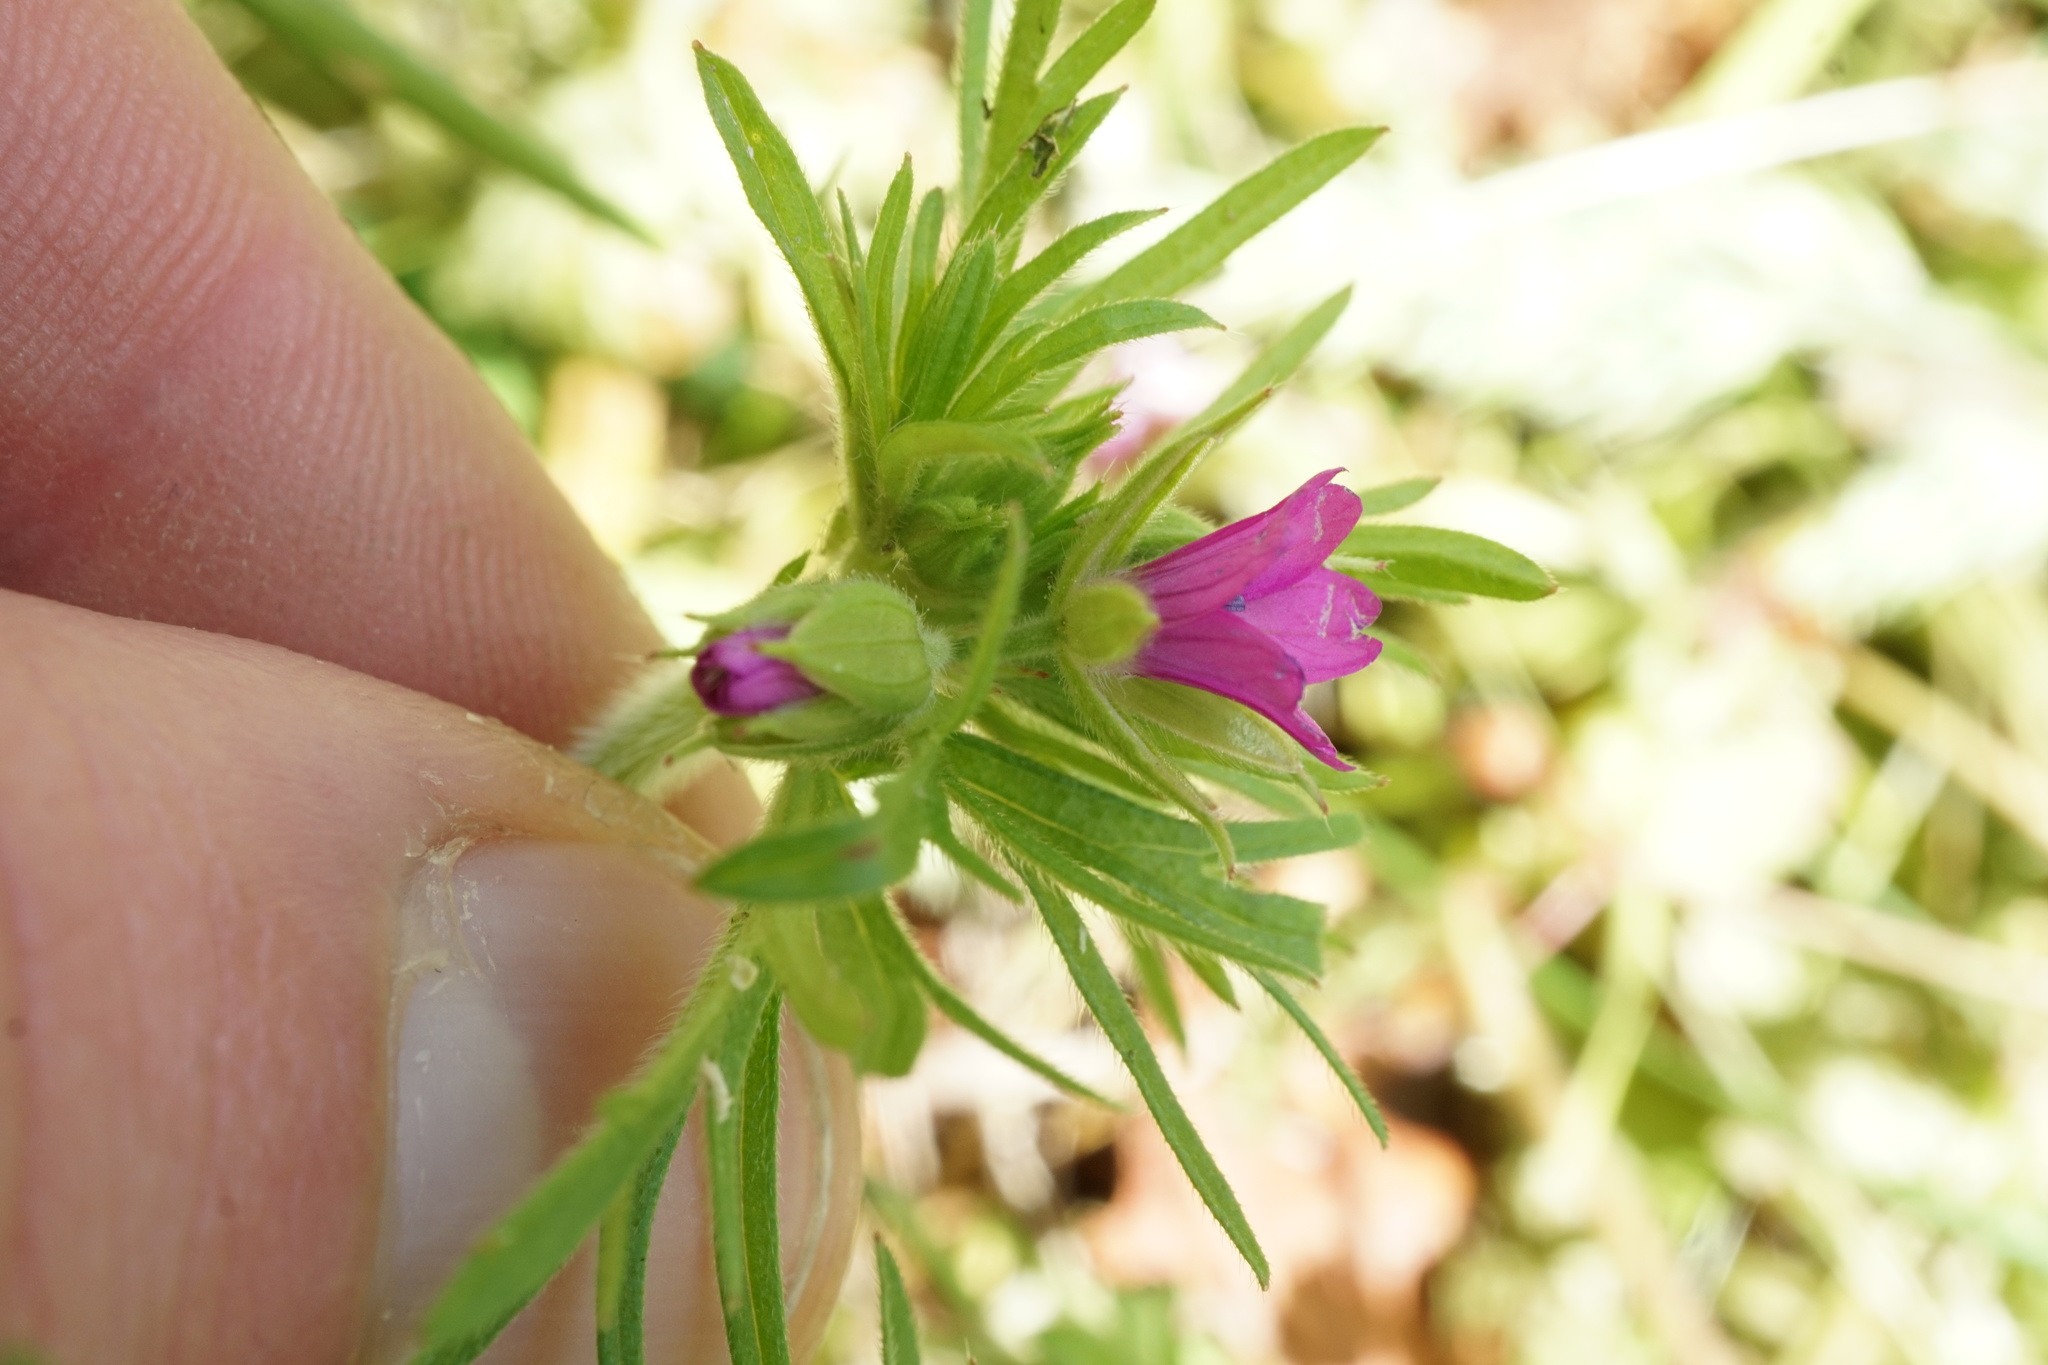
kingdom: Plantae
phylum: Tracheophyta
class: Magnoliopsida
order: Geraniales
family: Geraniaceae
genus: Geranium
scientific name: Geranium dissectum
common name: Cut-leaved crane's-bill
